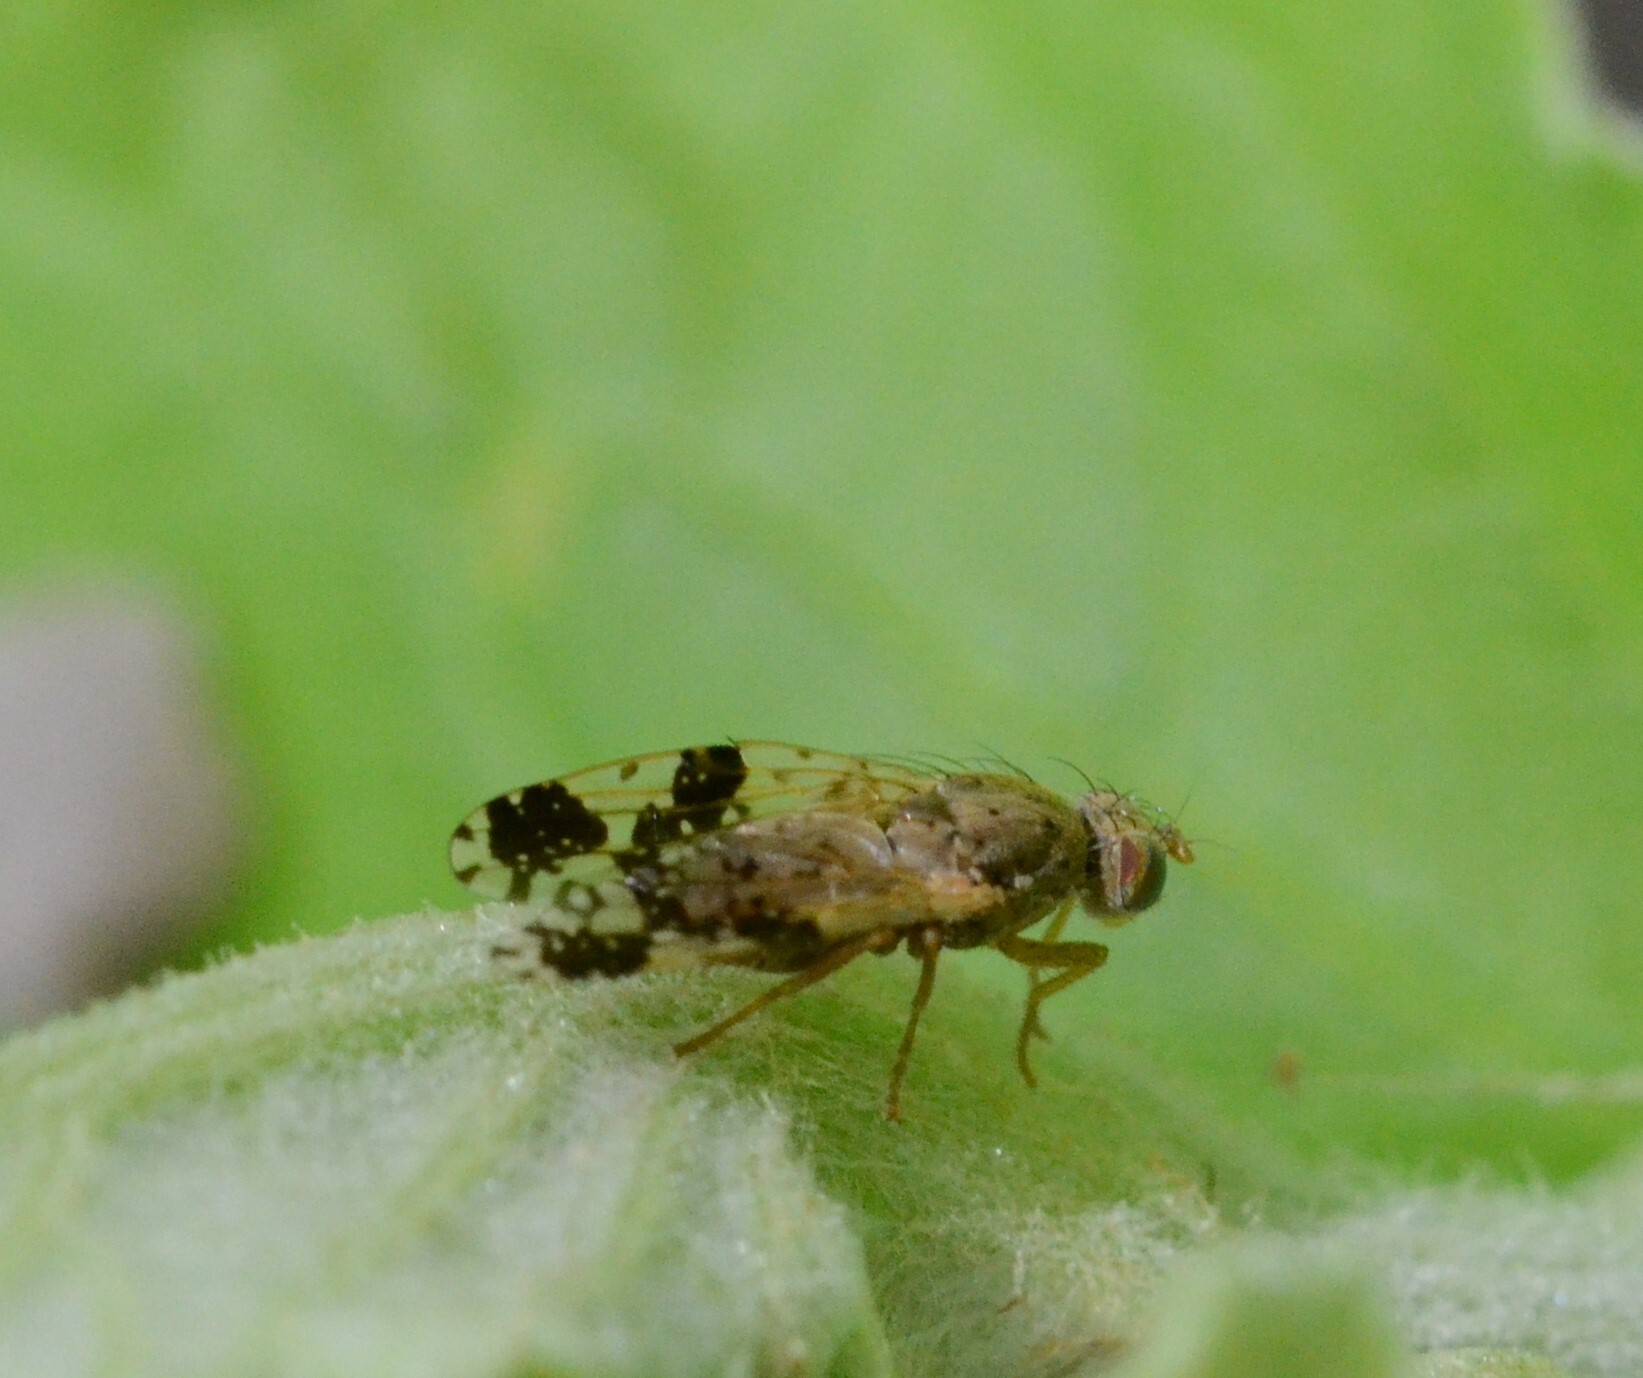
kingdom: Animalia
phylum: Arthropoda
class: Insecta
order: Diptera
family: Tephritidae
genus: Tephritis
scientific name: Tephritis bardanae
